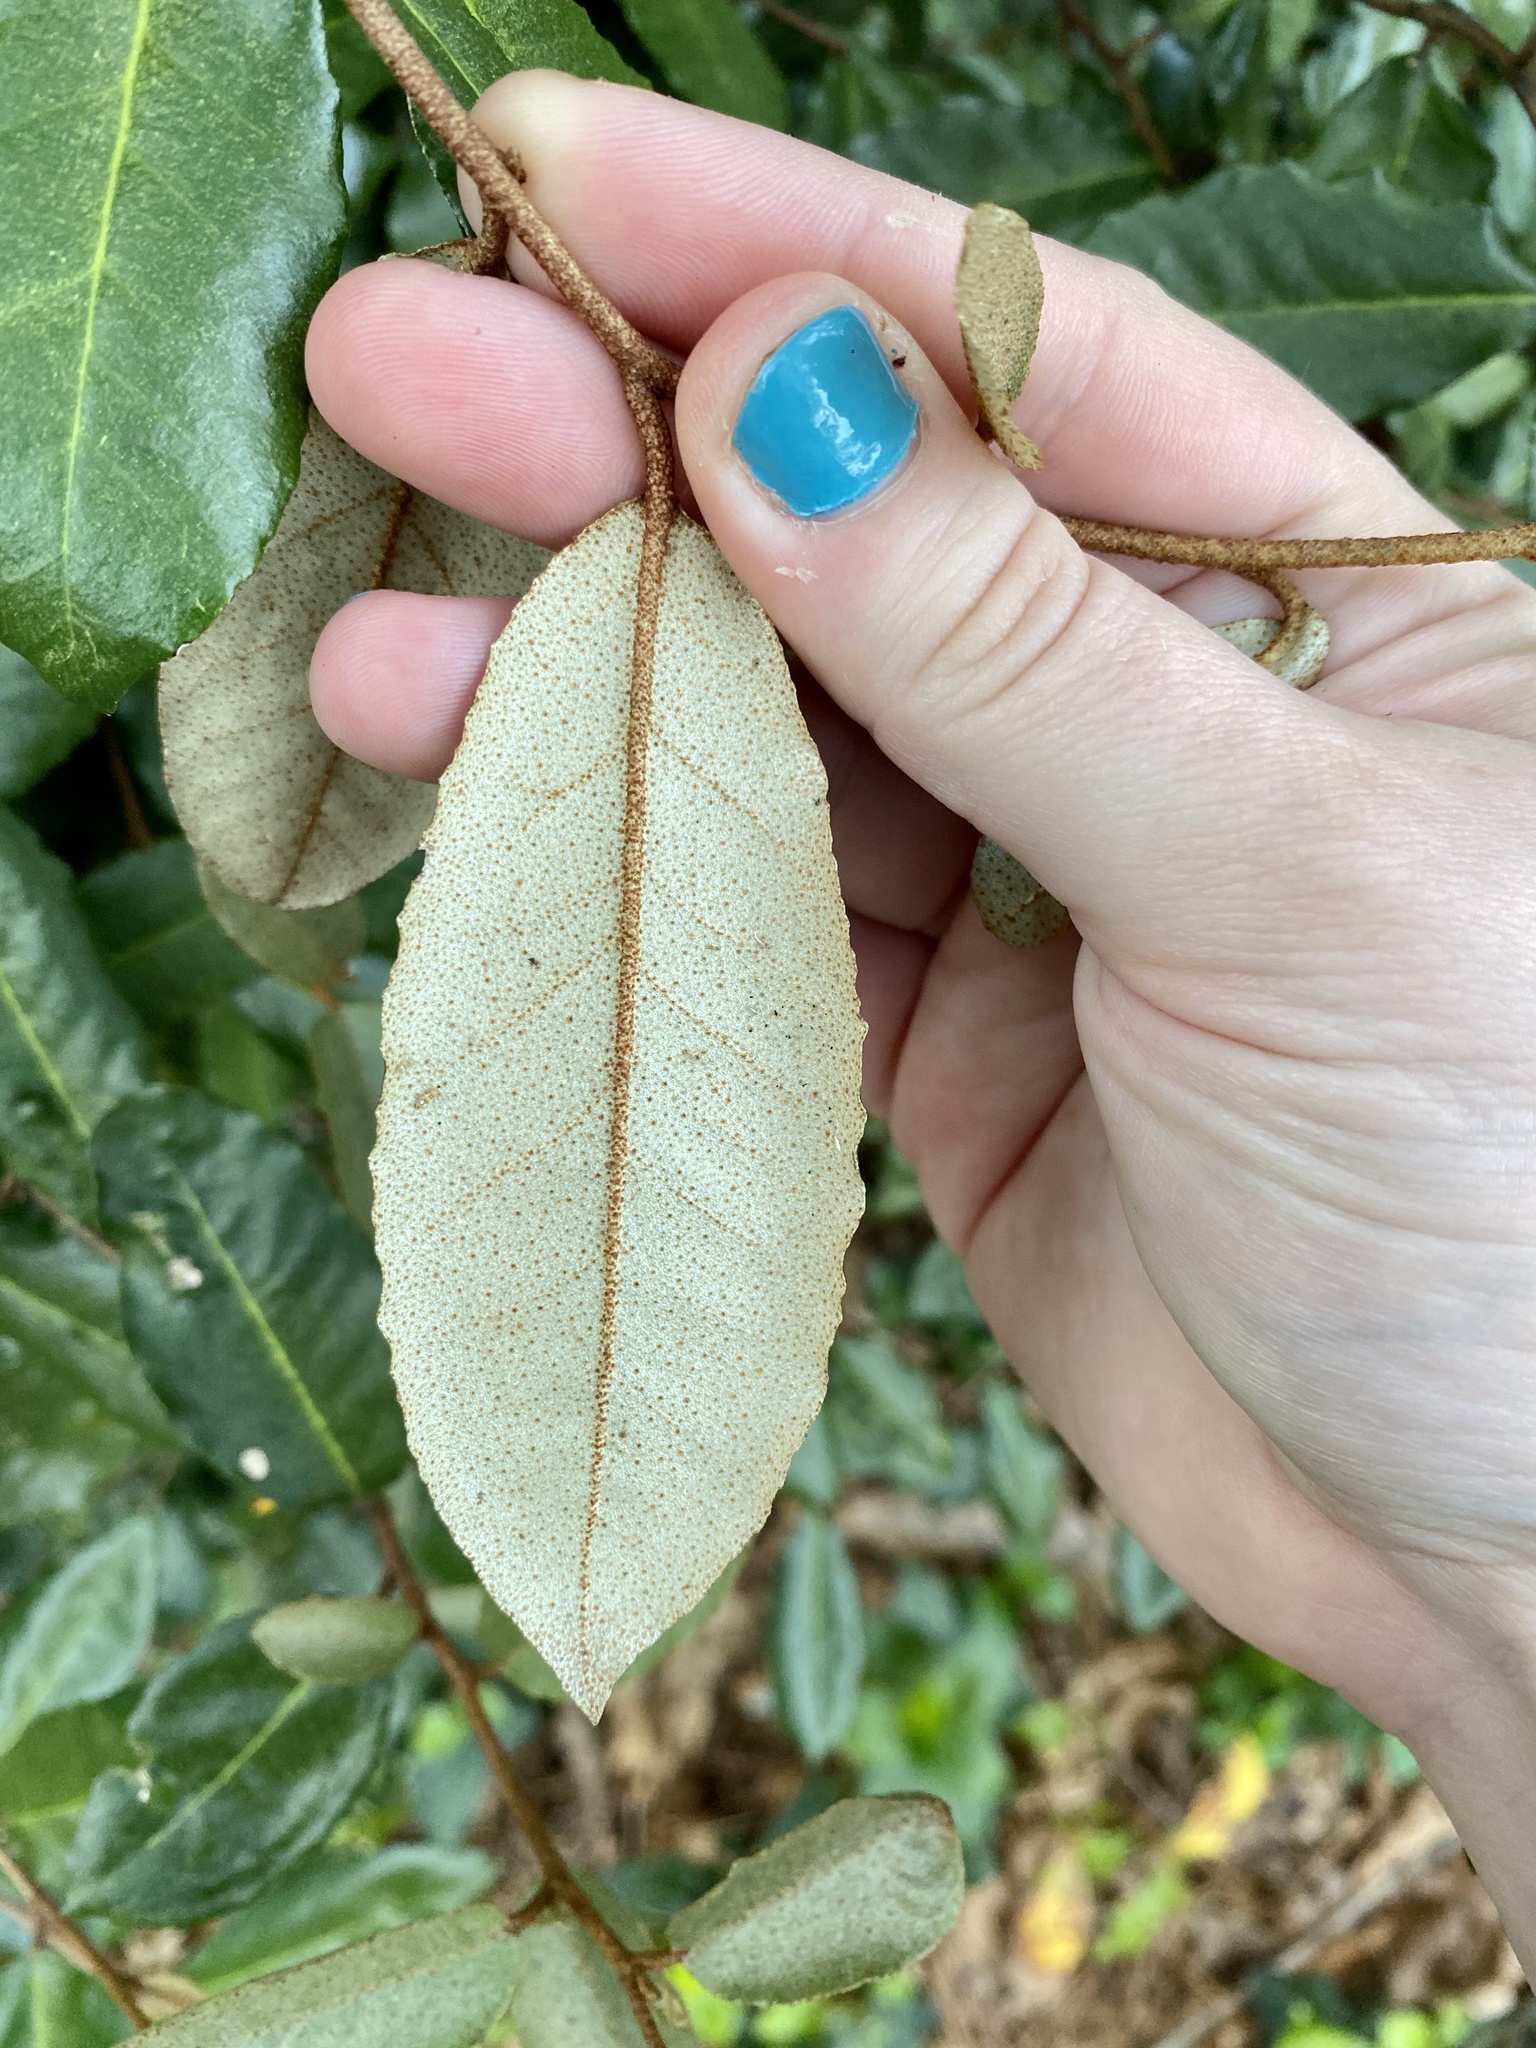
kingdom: Plantae
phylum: Tracheophyta
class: Magnoliopsida
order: Rosales
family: Elaeagnaceae
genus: Elaeagnus
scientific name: Elaeagnus pungens
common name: Spiny oleaster
